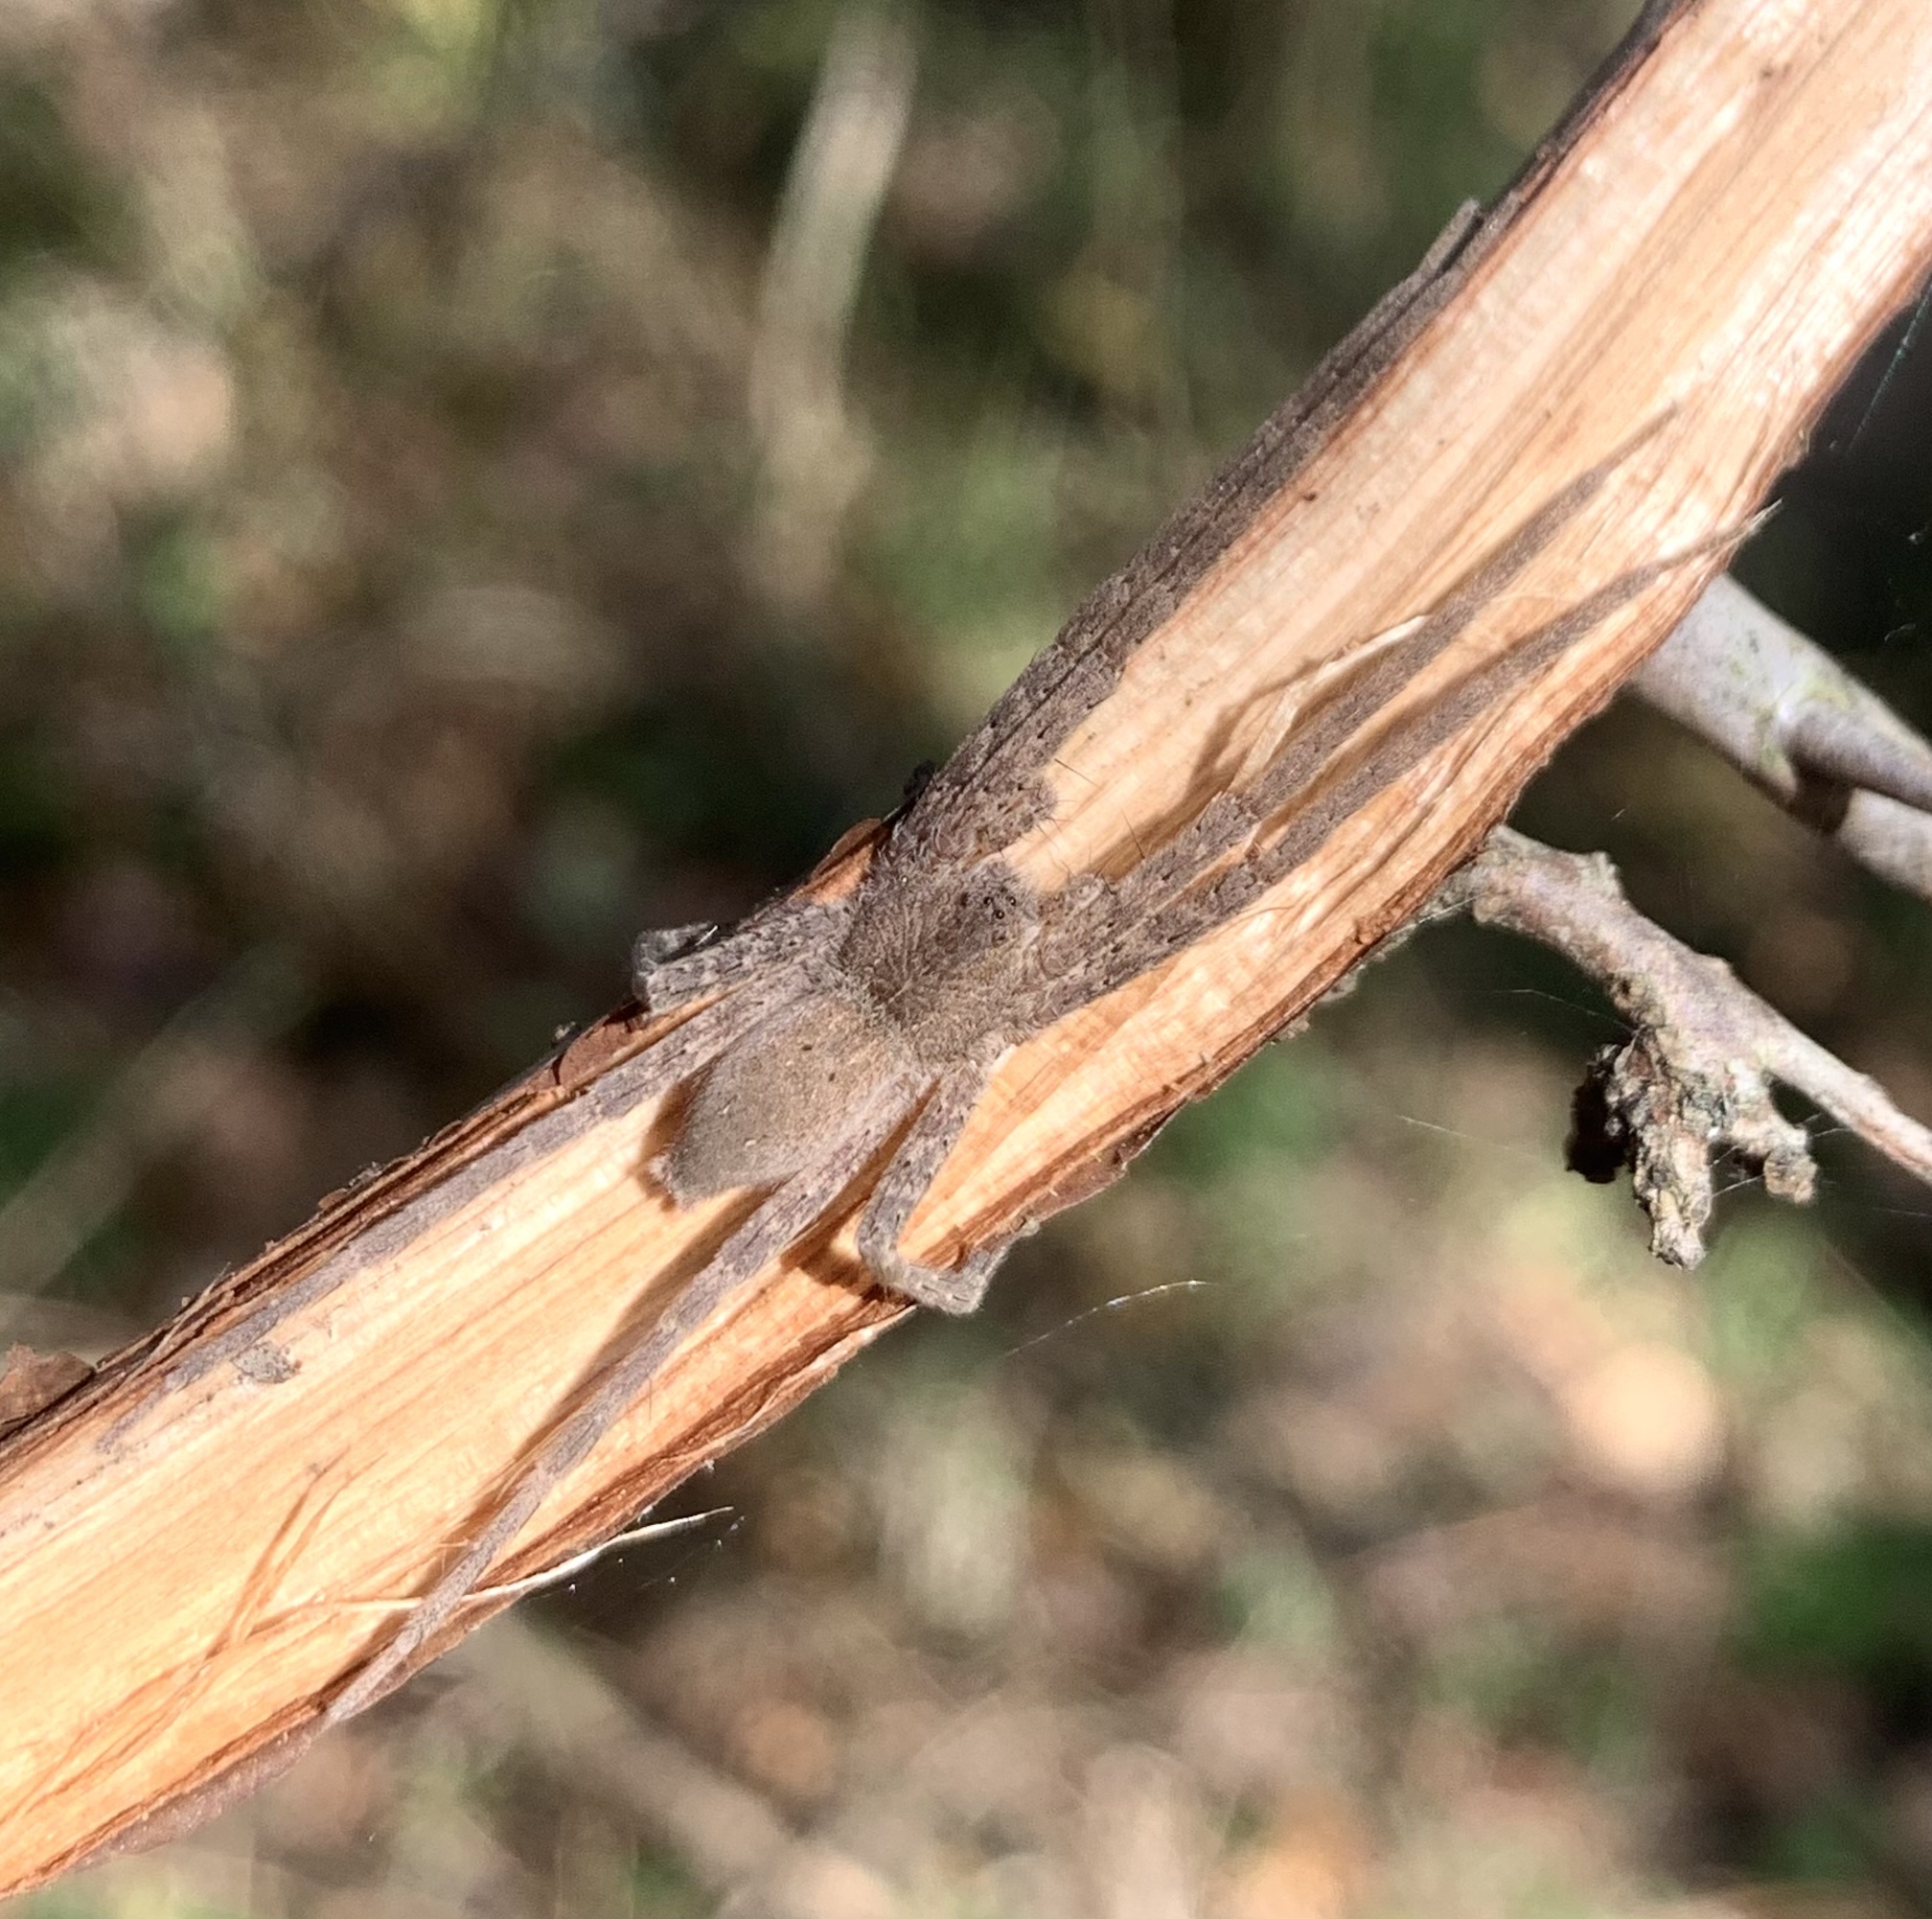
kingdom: Animalia
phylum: Arthropoda
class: Arachnida
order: Araneae
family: Pisauridae
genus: Pisaurina
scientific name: Pisaurina mira
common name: American nursery web spider
